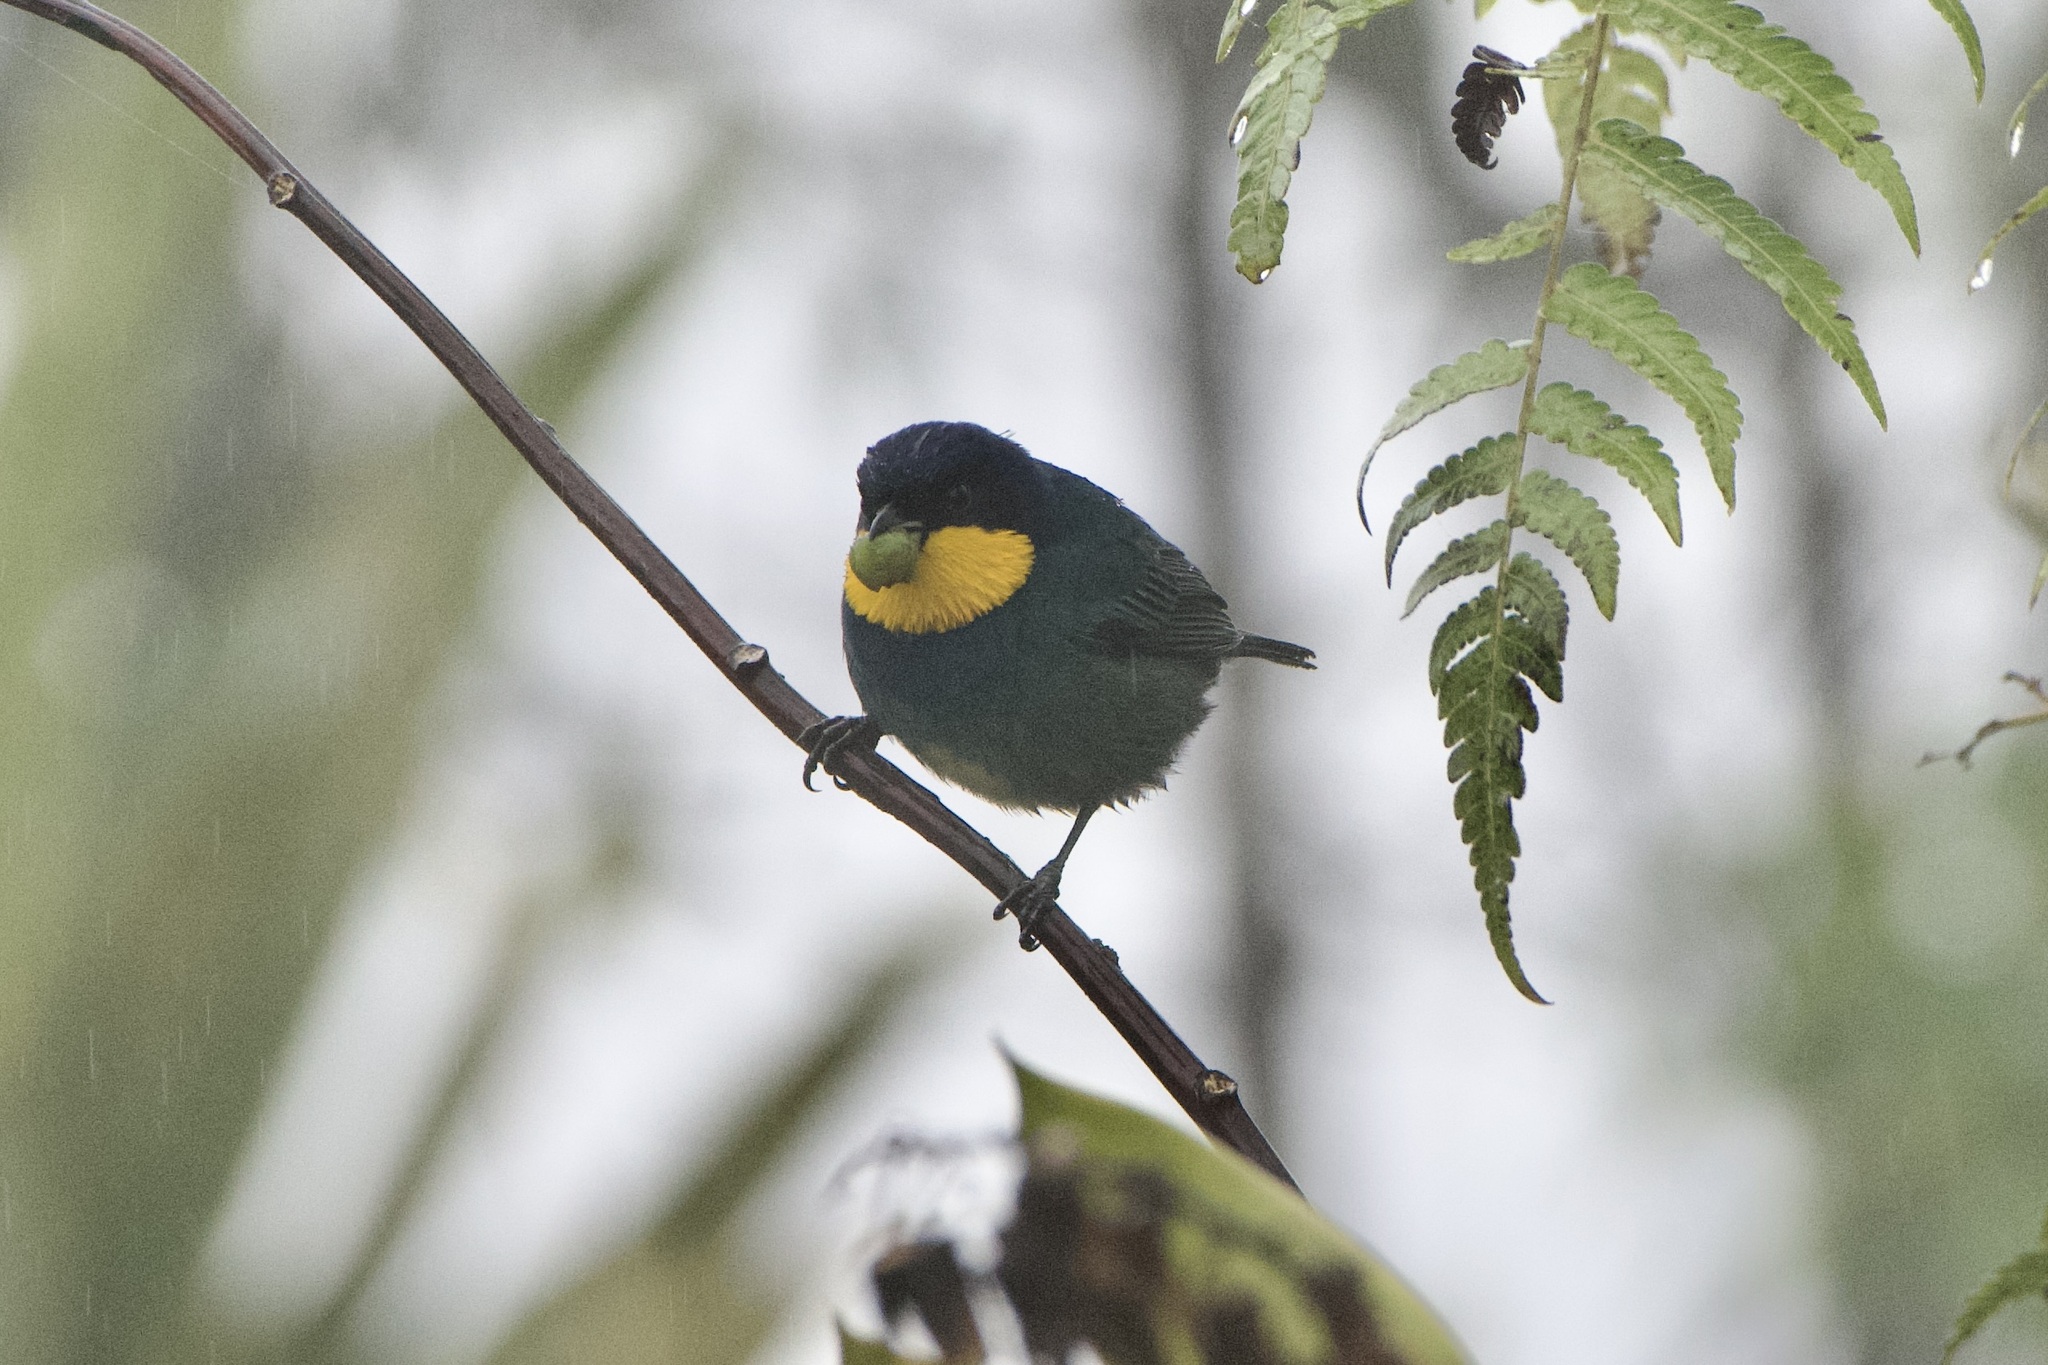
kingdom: Animalia
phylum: Chordata
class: Aves
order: Passeriformes
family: Thraupidae
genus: Iridosornis
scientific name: Iridosornis porphyrocephalus
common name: Purplish-mantled tanager
